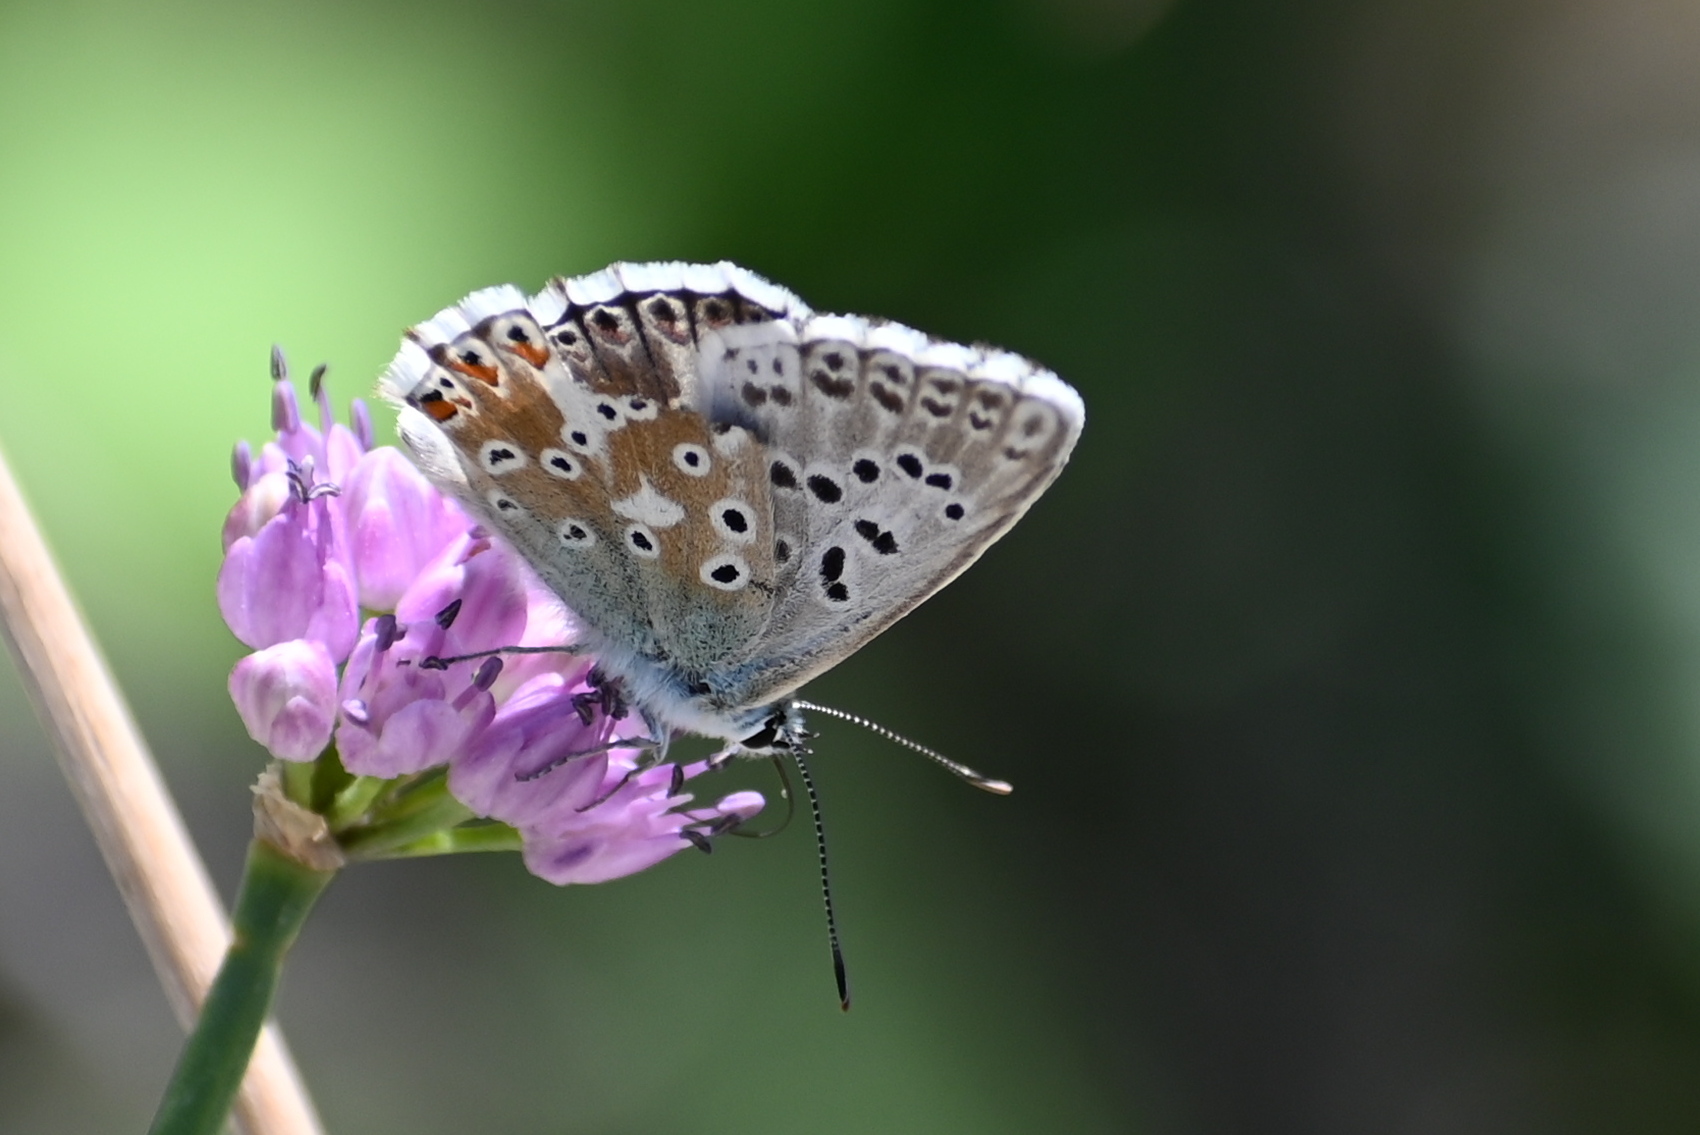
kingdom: Animalia
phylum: Arthropoda
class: Insecta
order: Lepidoptera
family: Lycaenidae
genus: Lysandra
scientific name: Lysandra coridon
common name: Chalkhill blue
